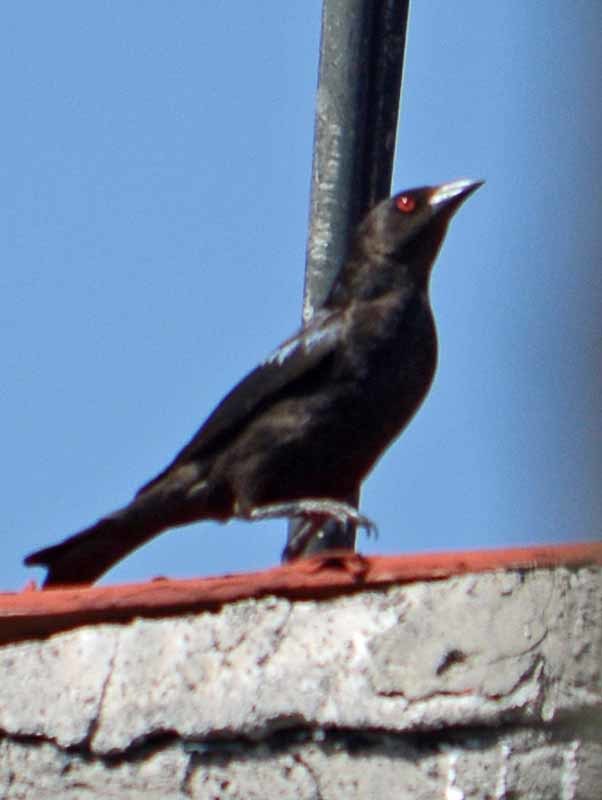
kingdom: Animalia
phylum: Chordata
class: Aves
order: Passeriformes
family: Icteridae
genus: Molothrus
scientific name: Molothrus aeneus
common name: Bronzed cowbird
